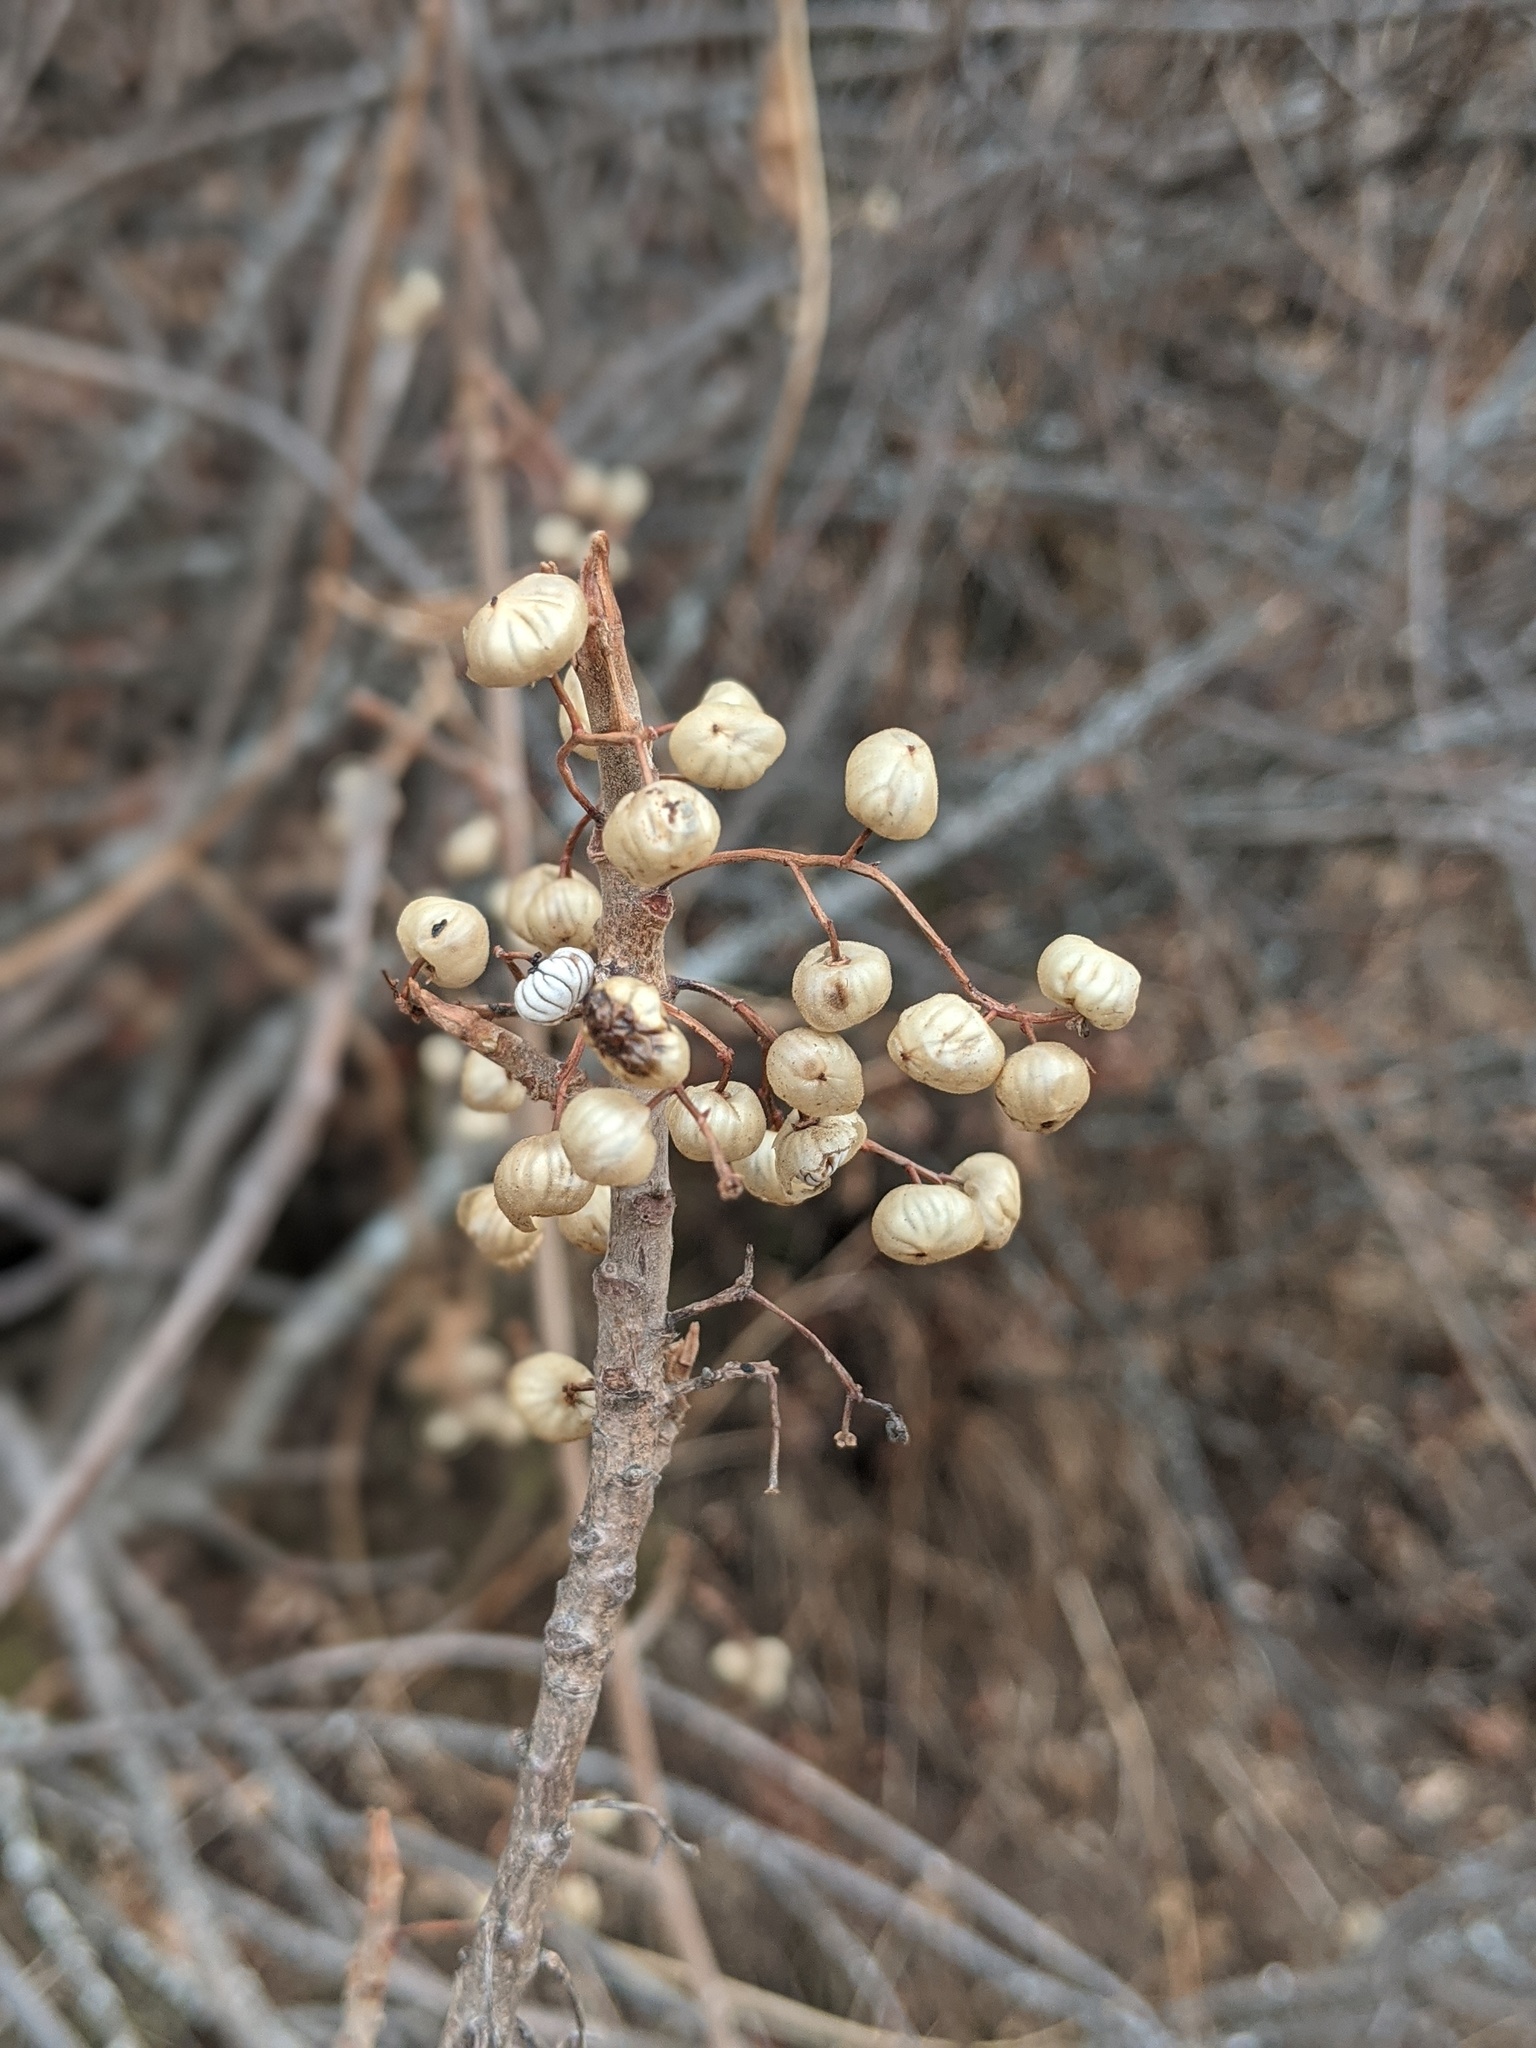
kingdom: Plantae
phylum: Tracheophyta
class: Magnoliopsida
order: Sapindales
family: Anacardiaceae
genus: Toxicodendron
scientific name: Toxicodendron diversilobum
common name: Pacific poison-oak
